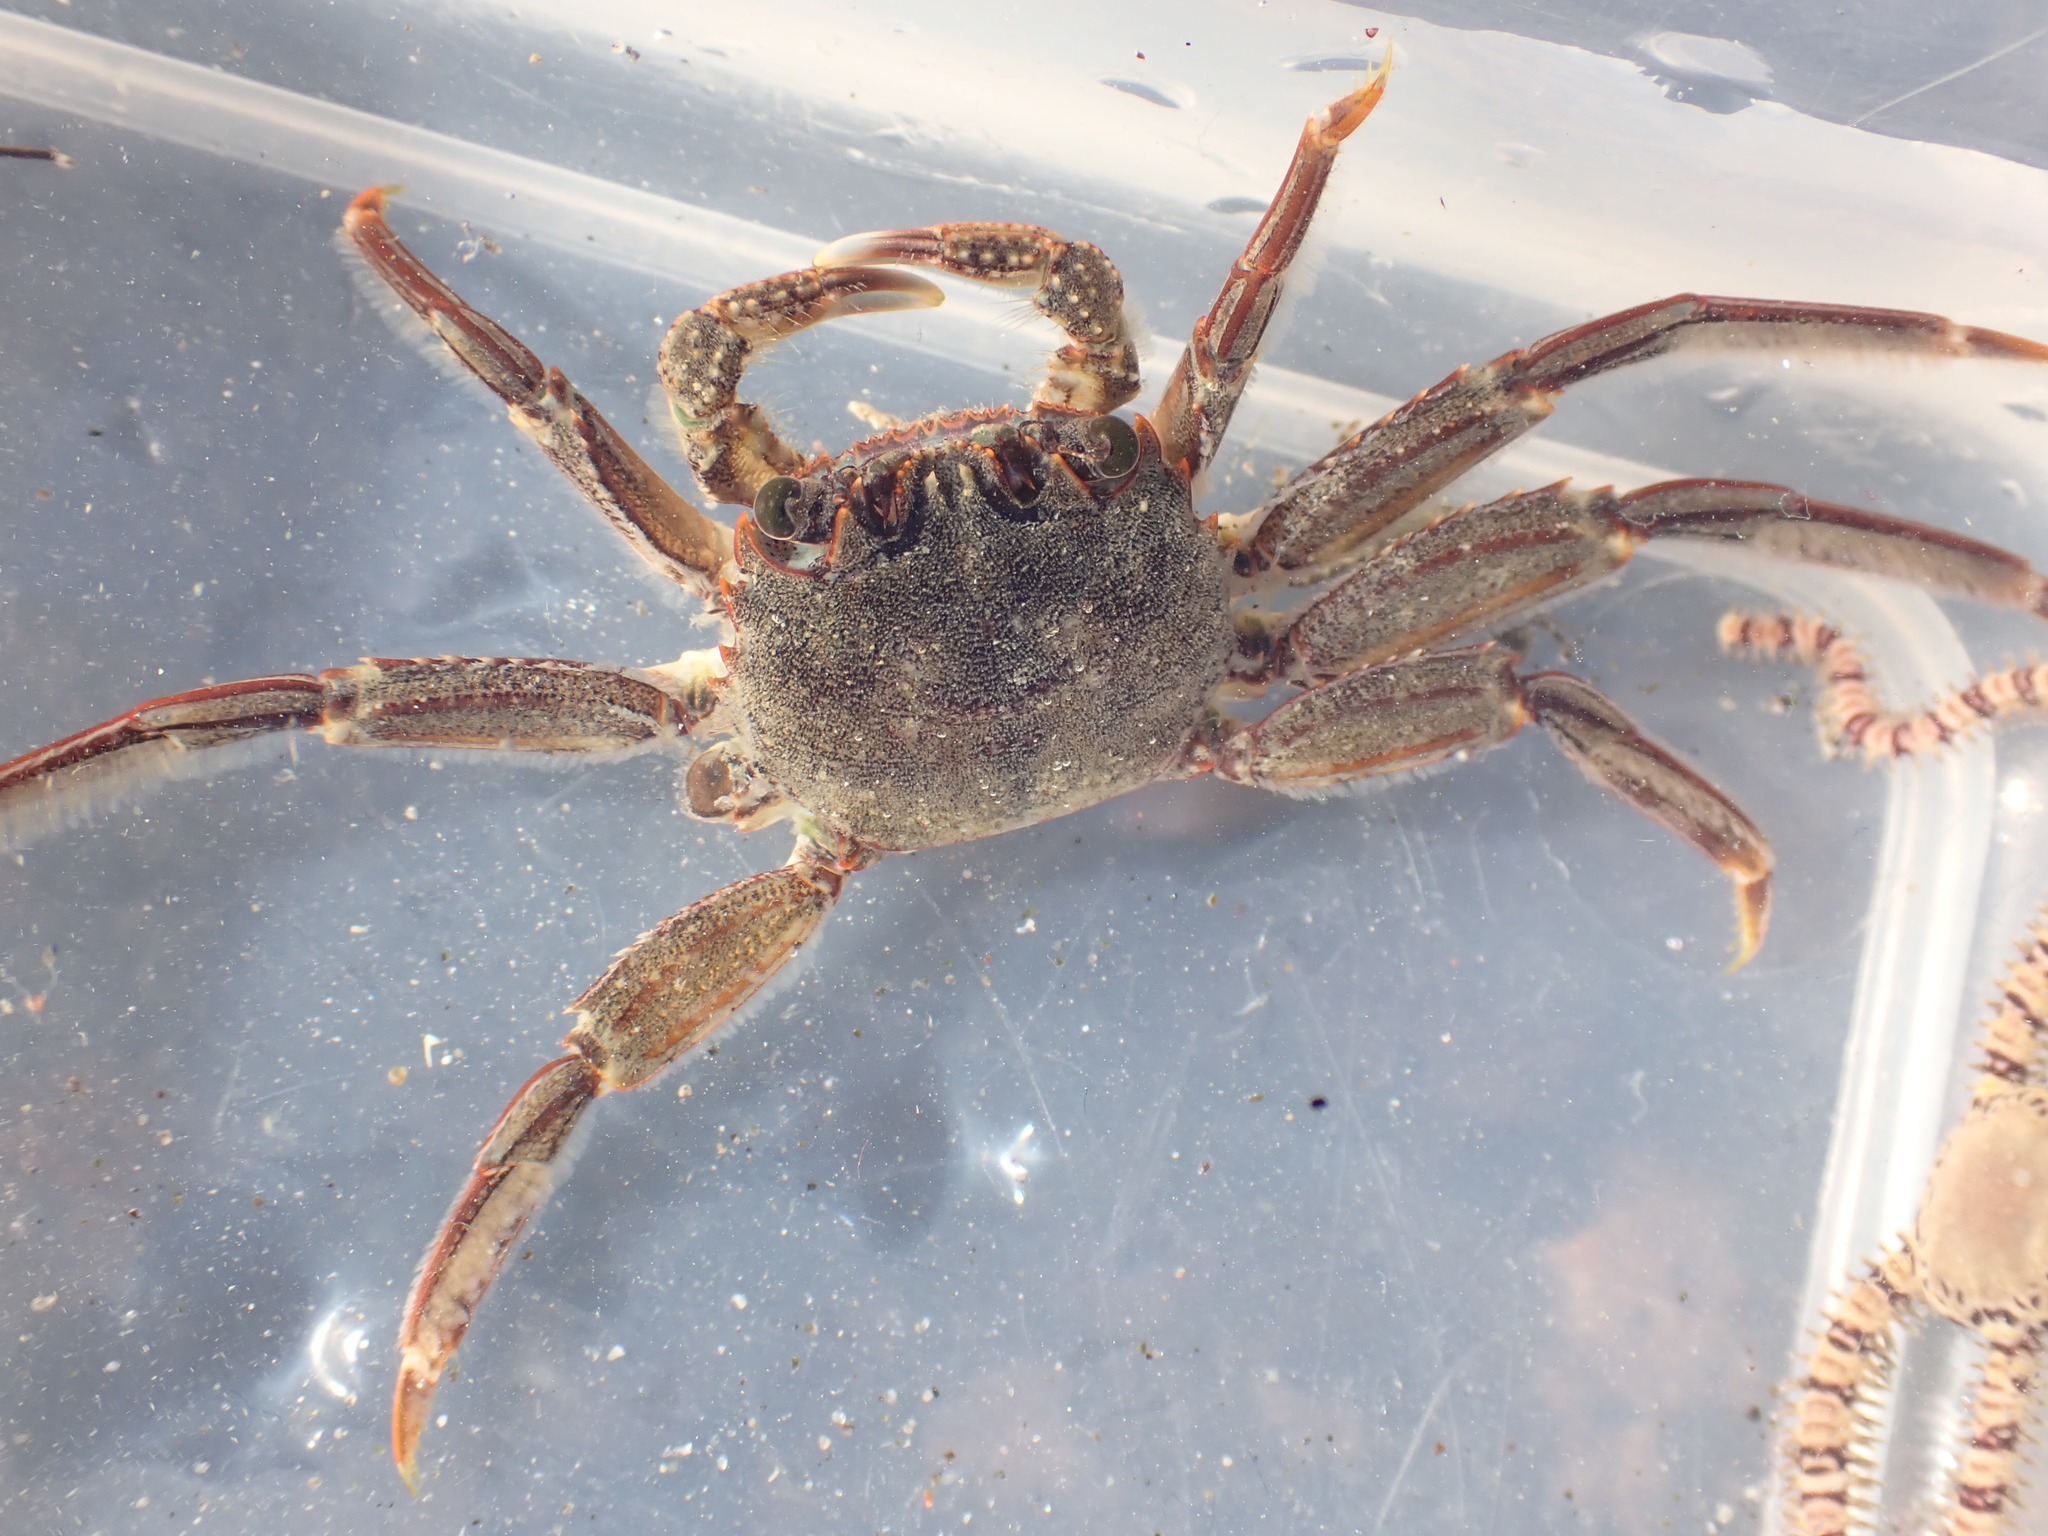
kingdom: Animalia
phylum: Arthropoda
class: Malacostraca
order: Decapoda
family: Plagusiidae
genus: Guinusia
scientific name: Guinusia chabrus
